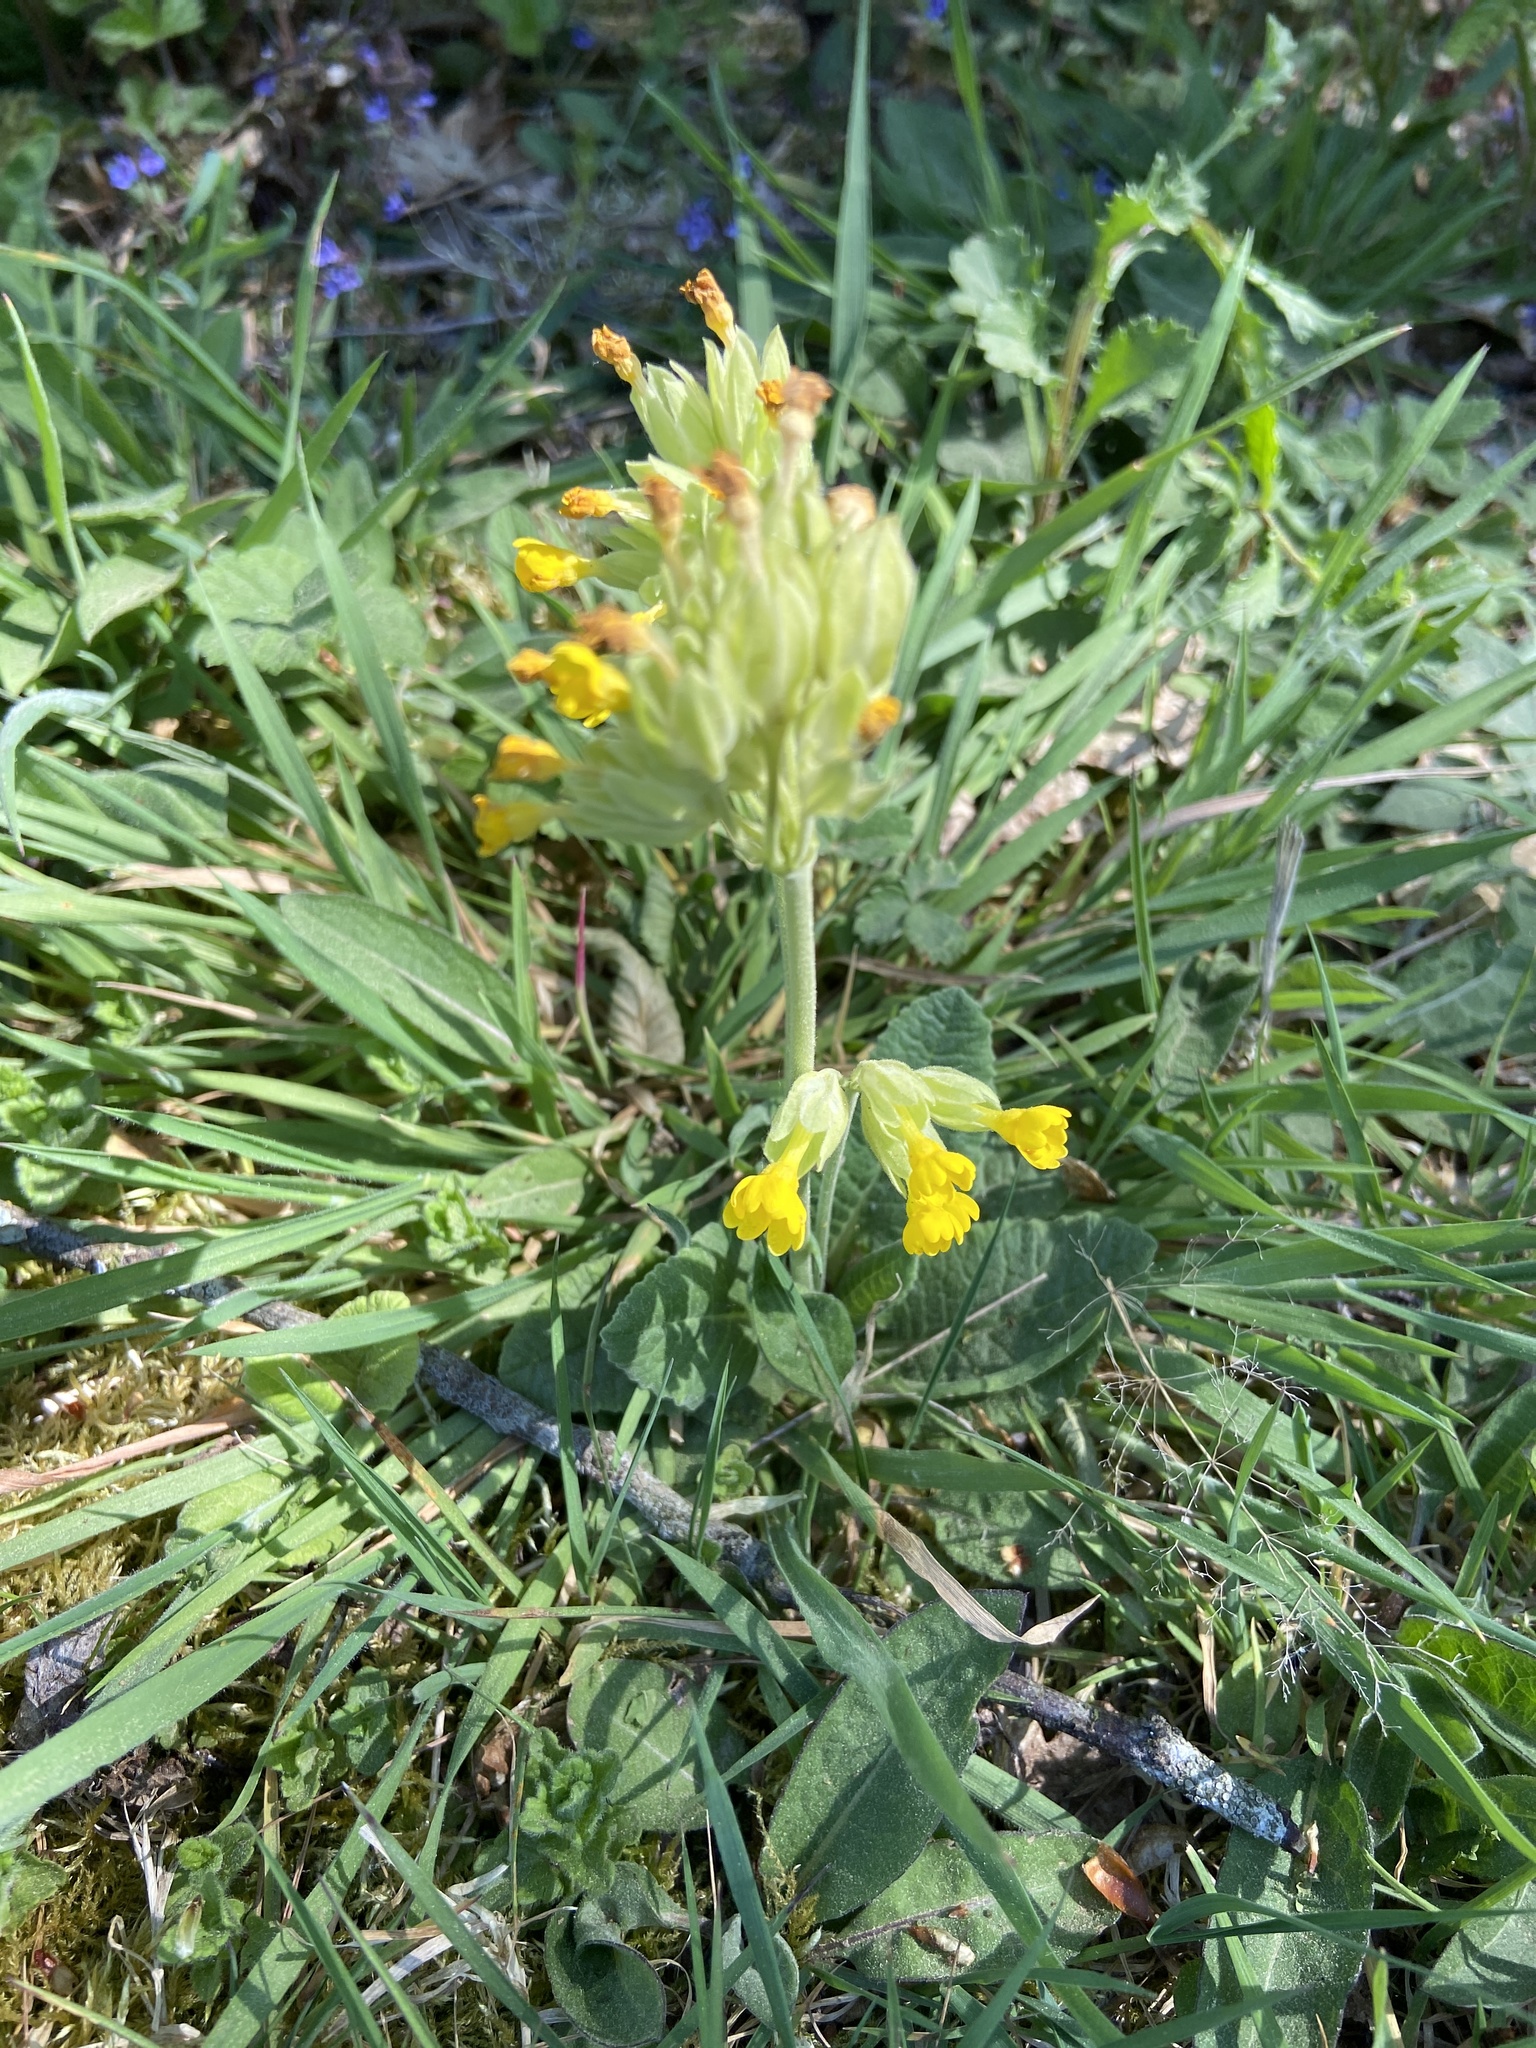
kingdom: Plantae
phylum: Tracheophyta
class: Magnoliopsida
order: Ericales
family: Primulaceae
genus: Primula
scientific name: Primula veris
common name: Cowslip
